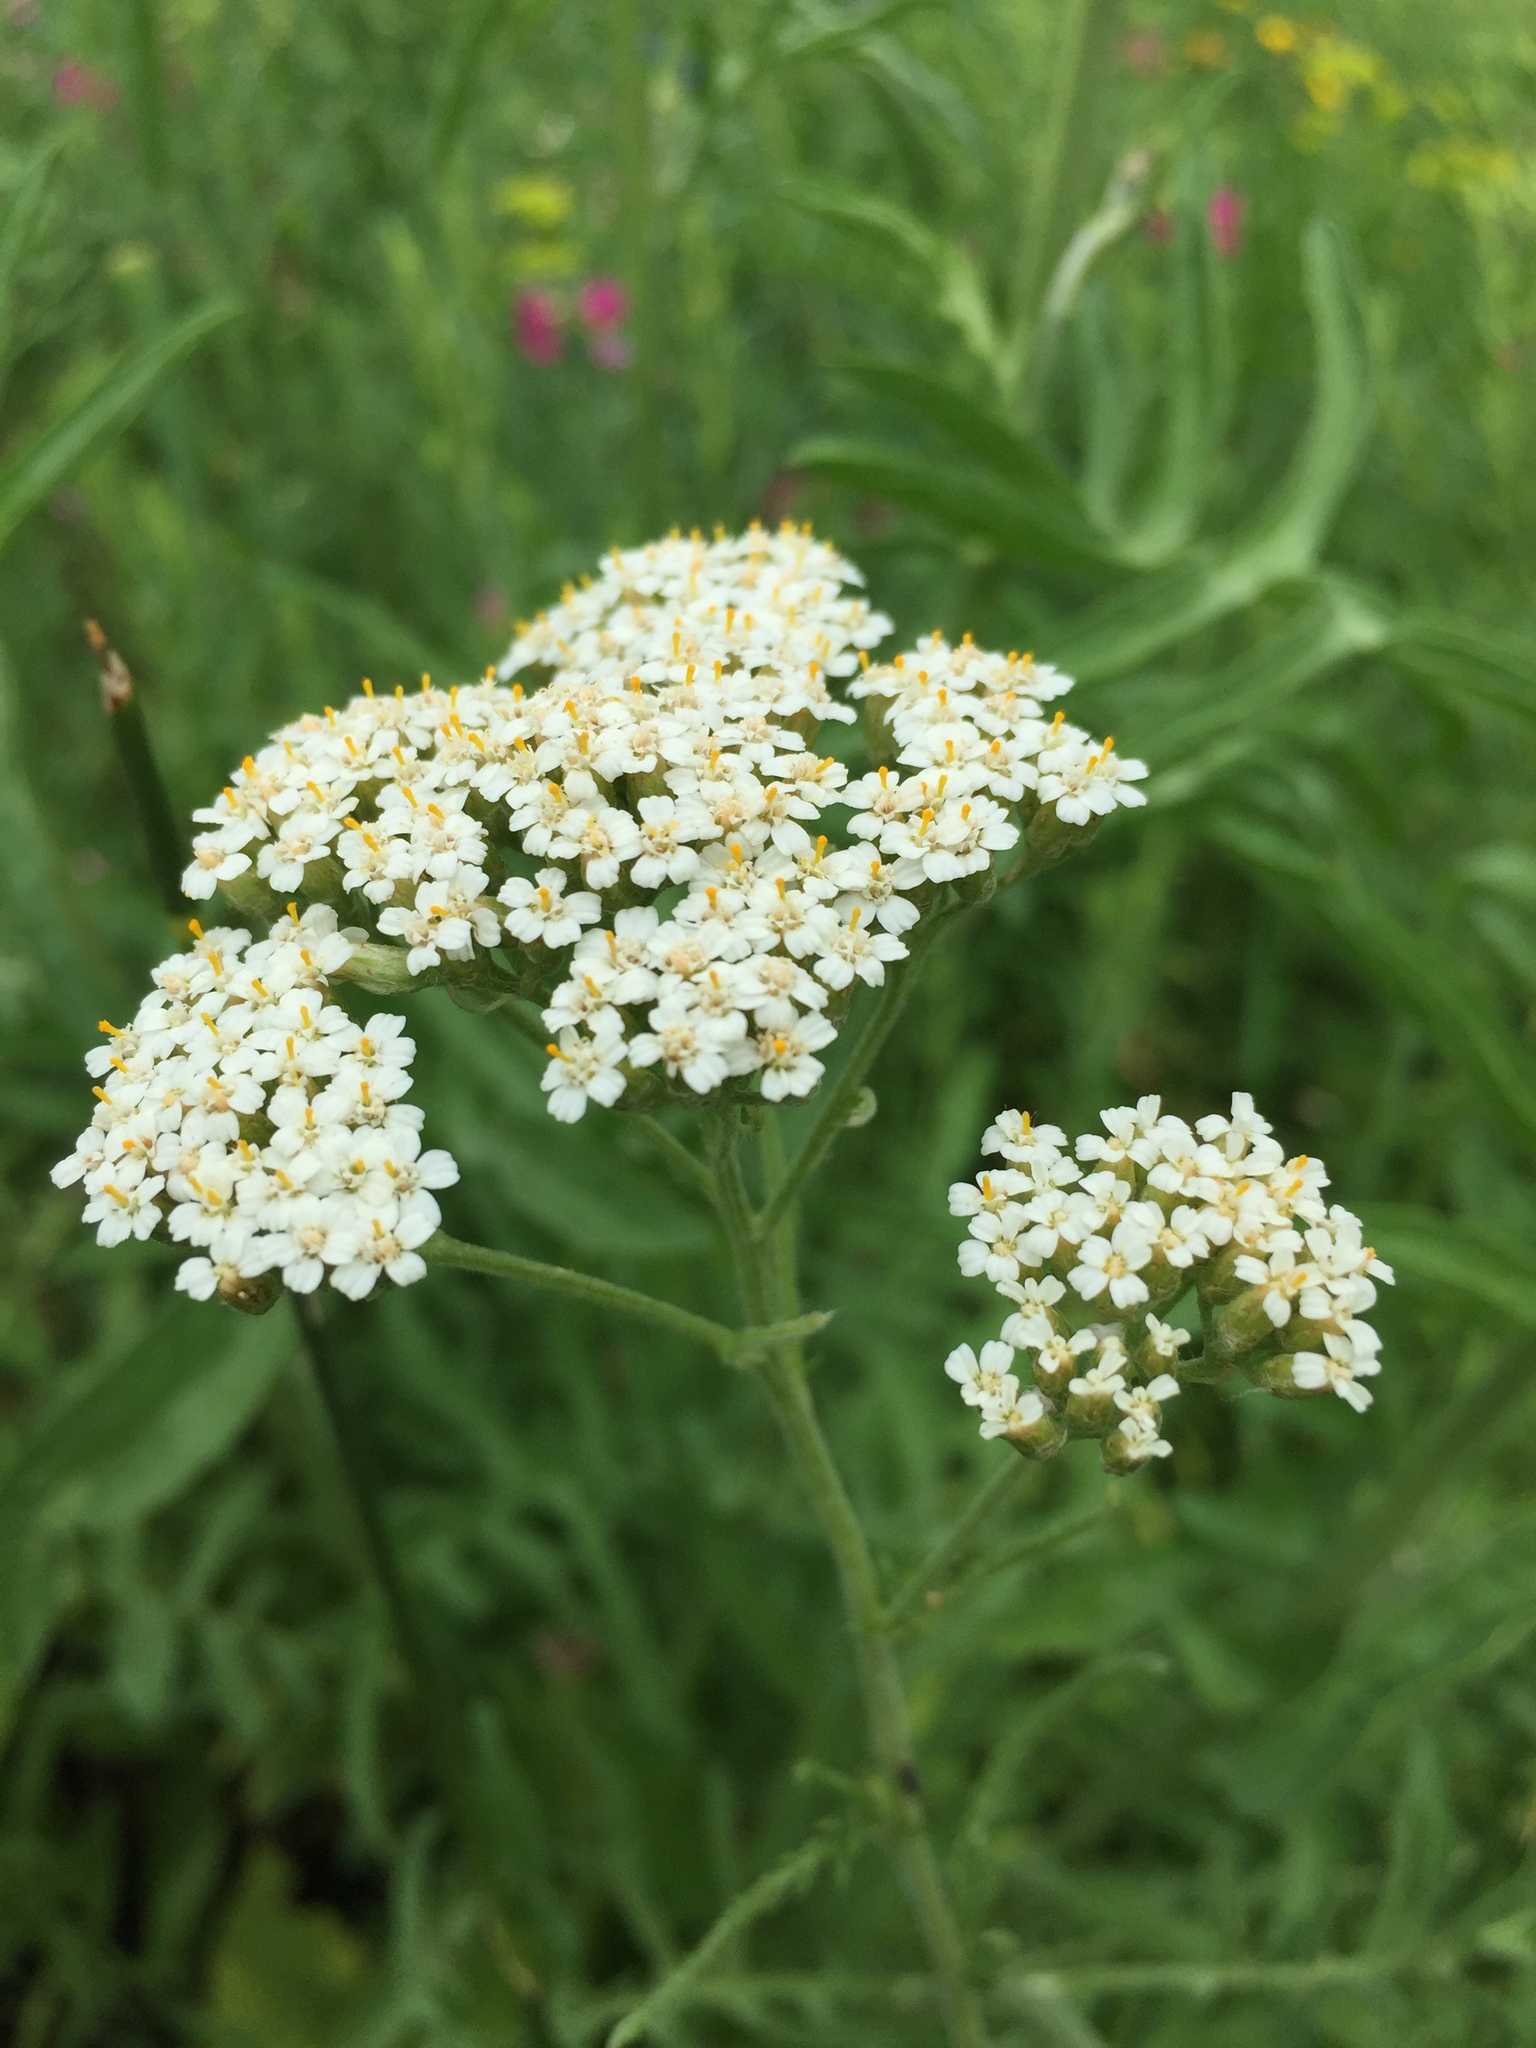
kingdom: Plantae
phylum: Tracheophyta
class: Magnoliopsida
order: Asterales
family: Asteraceae
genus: Achillea
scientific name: Achillea millefolium
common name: Yarrow
